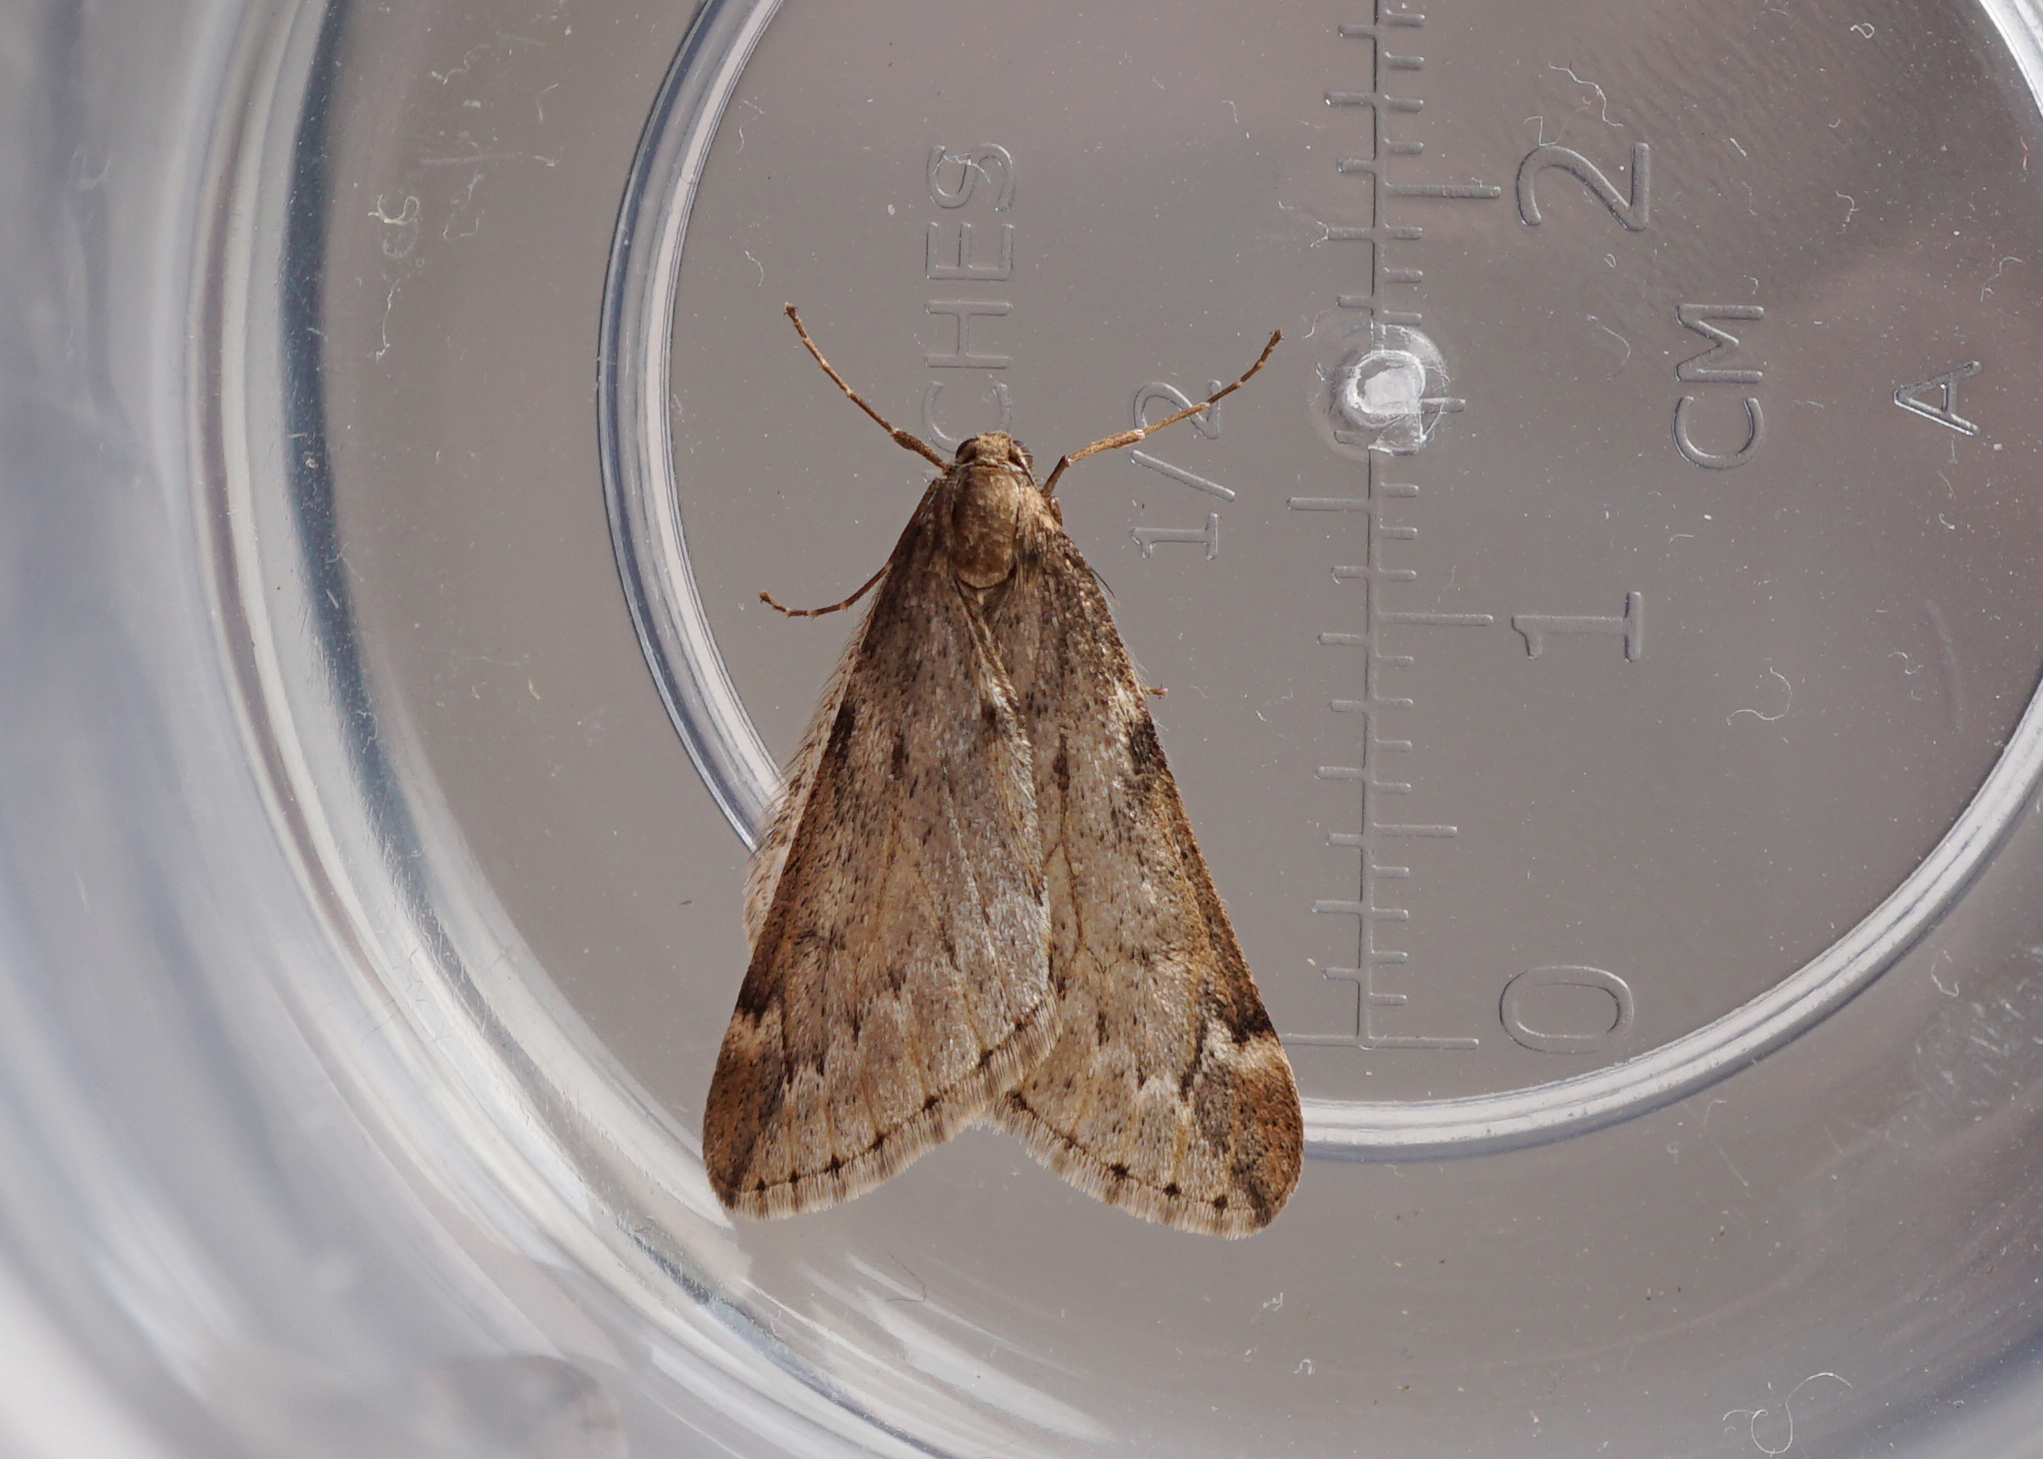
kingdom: Animalia
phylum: Arthropoda
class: Insecta
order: Lepidoptera
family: Geometridae
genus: Alsophila
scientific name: Alsophila aescularia
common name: March moth
